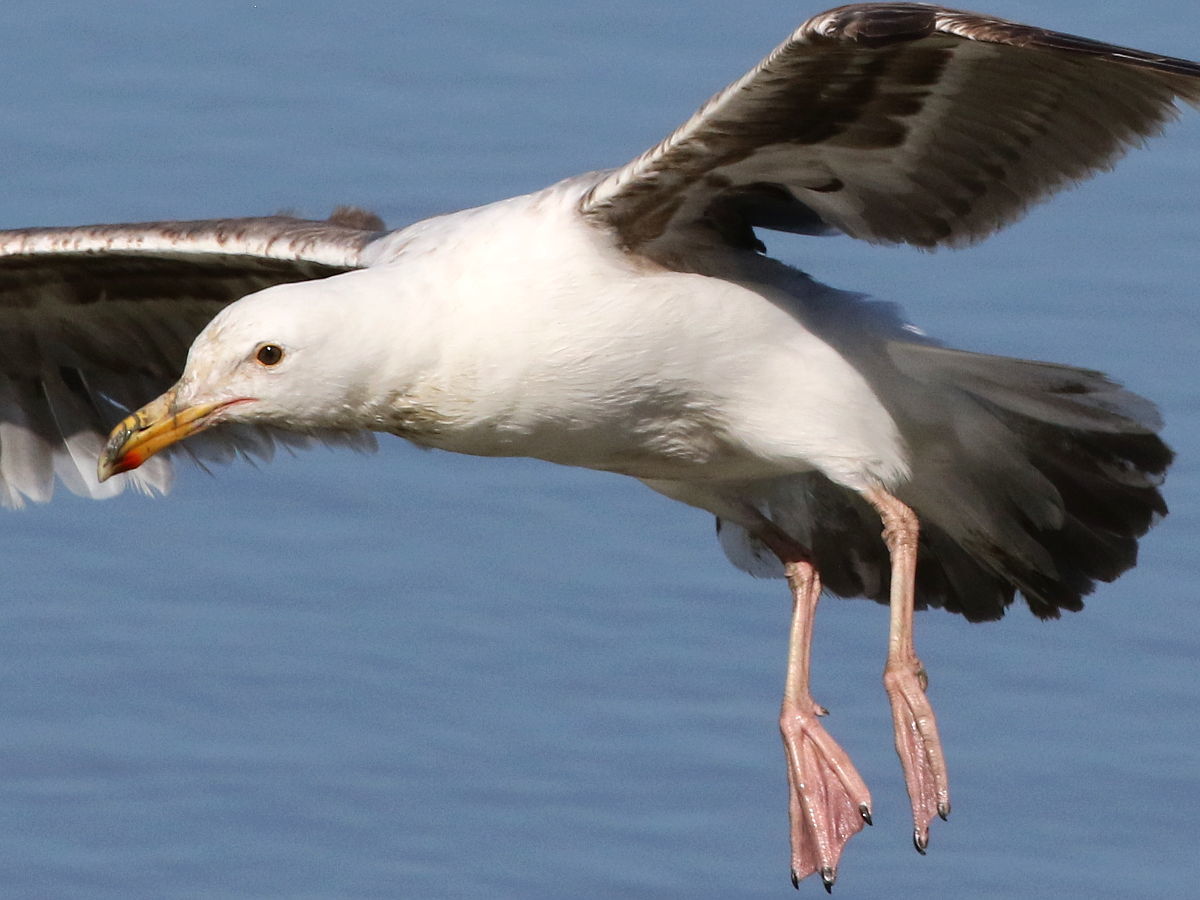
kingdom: Animalia
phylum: Chordata
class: Aves
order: Charadriiformes
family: Laridae
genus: Larus
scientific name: Larus occidentalis
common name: Western gull
